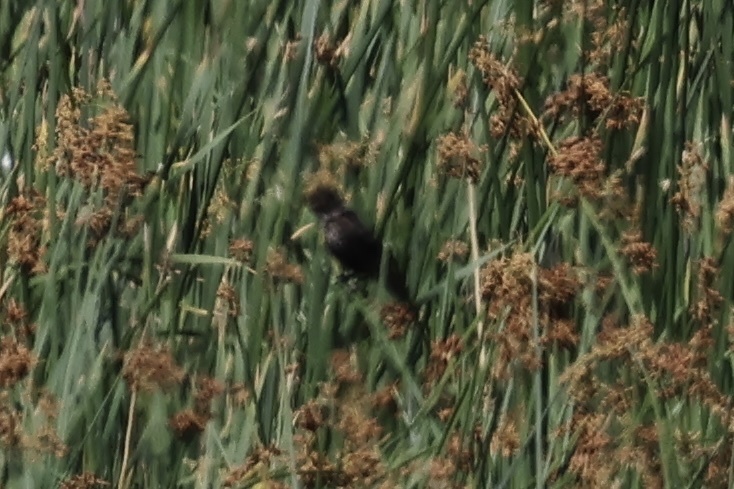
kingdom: Animalia
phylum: Chordata
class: Aves
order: Passeriformes
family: Icteridae
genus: Agelaius
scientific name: Agelaius phoeniceus
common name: Red-winged blackbird
